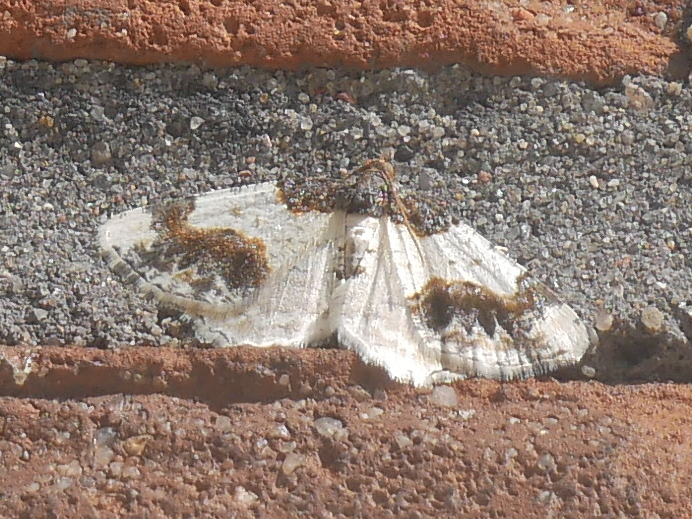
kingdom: Animalia
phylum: Arthropoda
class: Insecta
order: Lepidoptera
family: Geometridae
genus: Ligdia
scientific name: Ligdia adustata
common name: Scorched carpet
